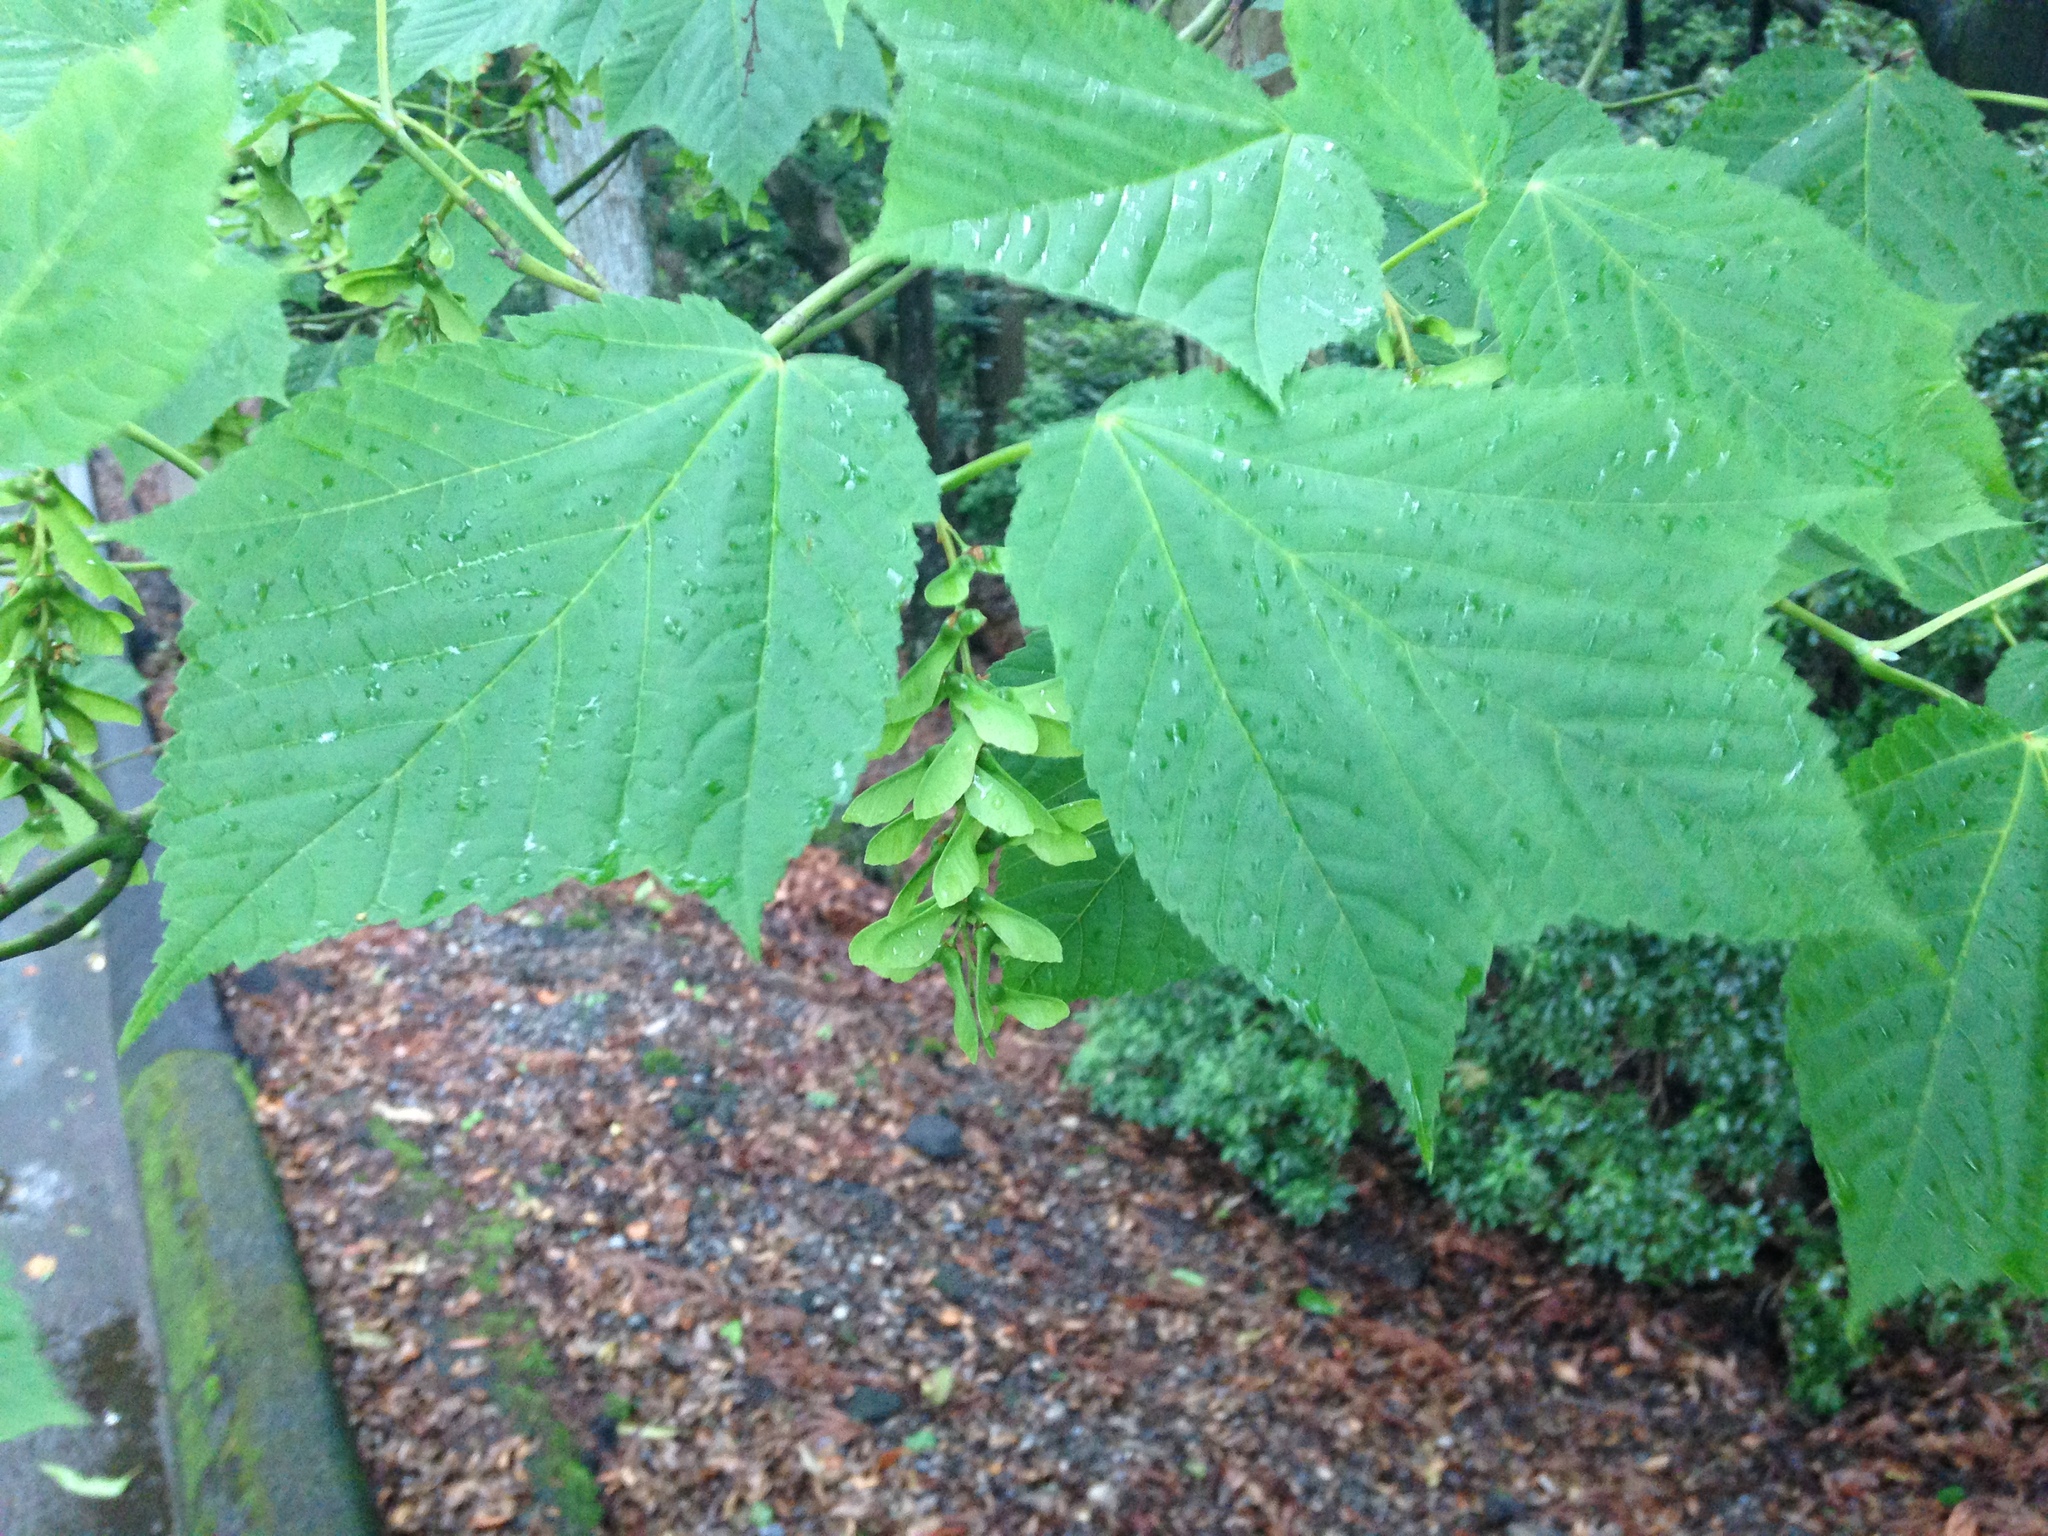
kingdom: Plantae
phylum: Tracheophyta
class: Magnoliopsida
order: Sapindales
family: Sapindaceae
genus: Acer
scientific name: Acer rufinerve
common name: Red veined maple
